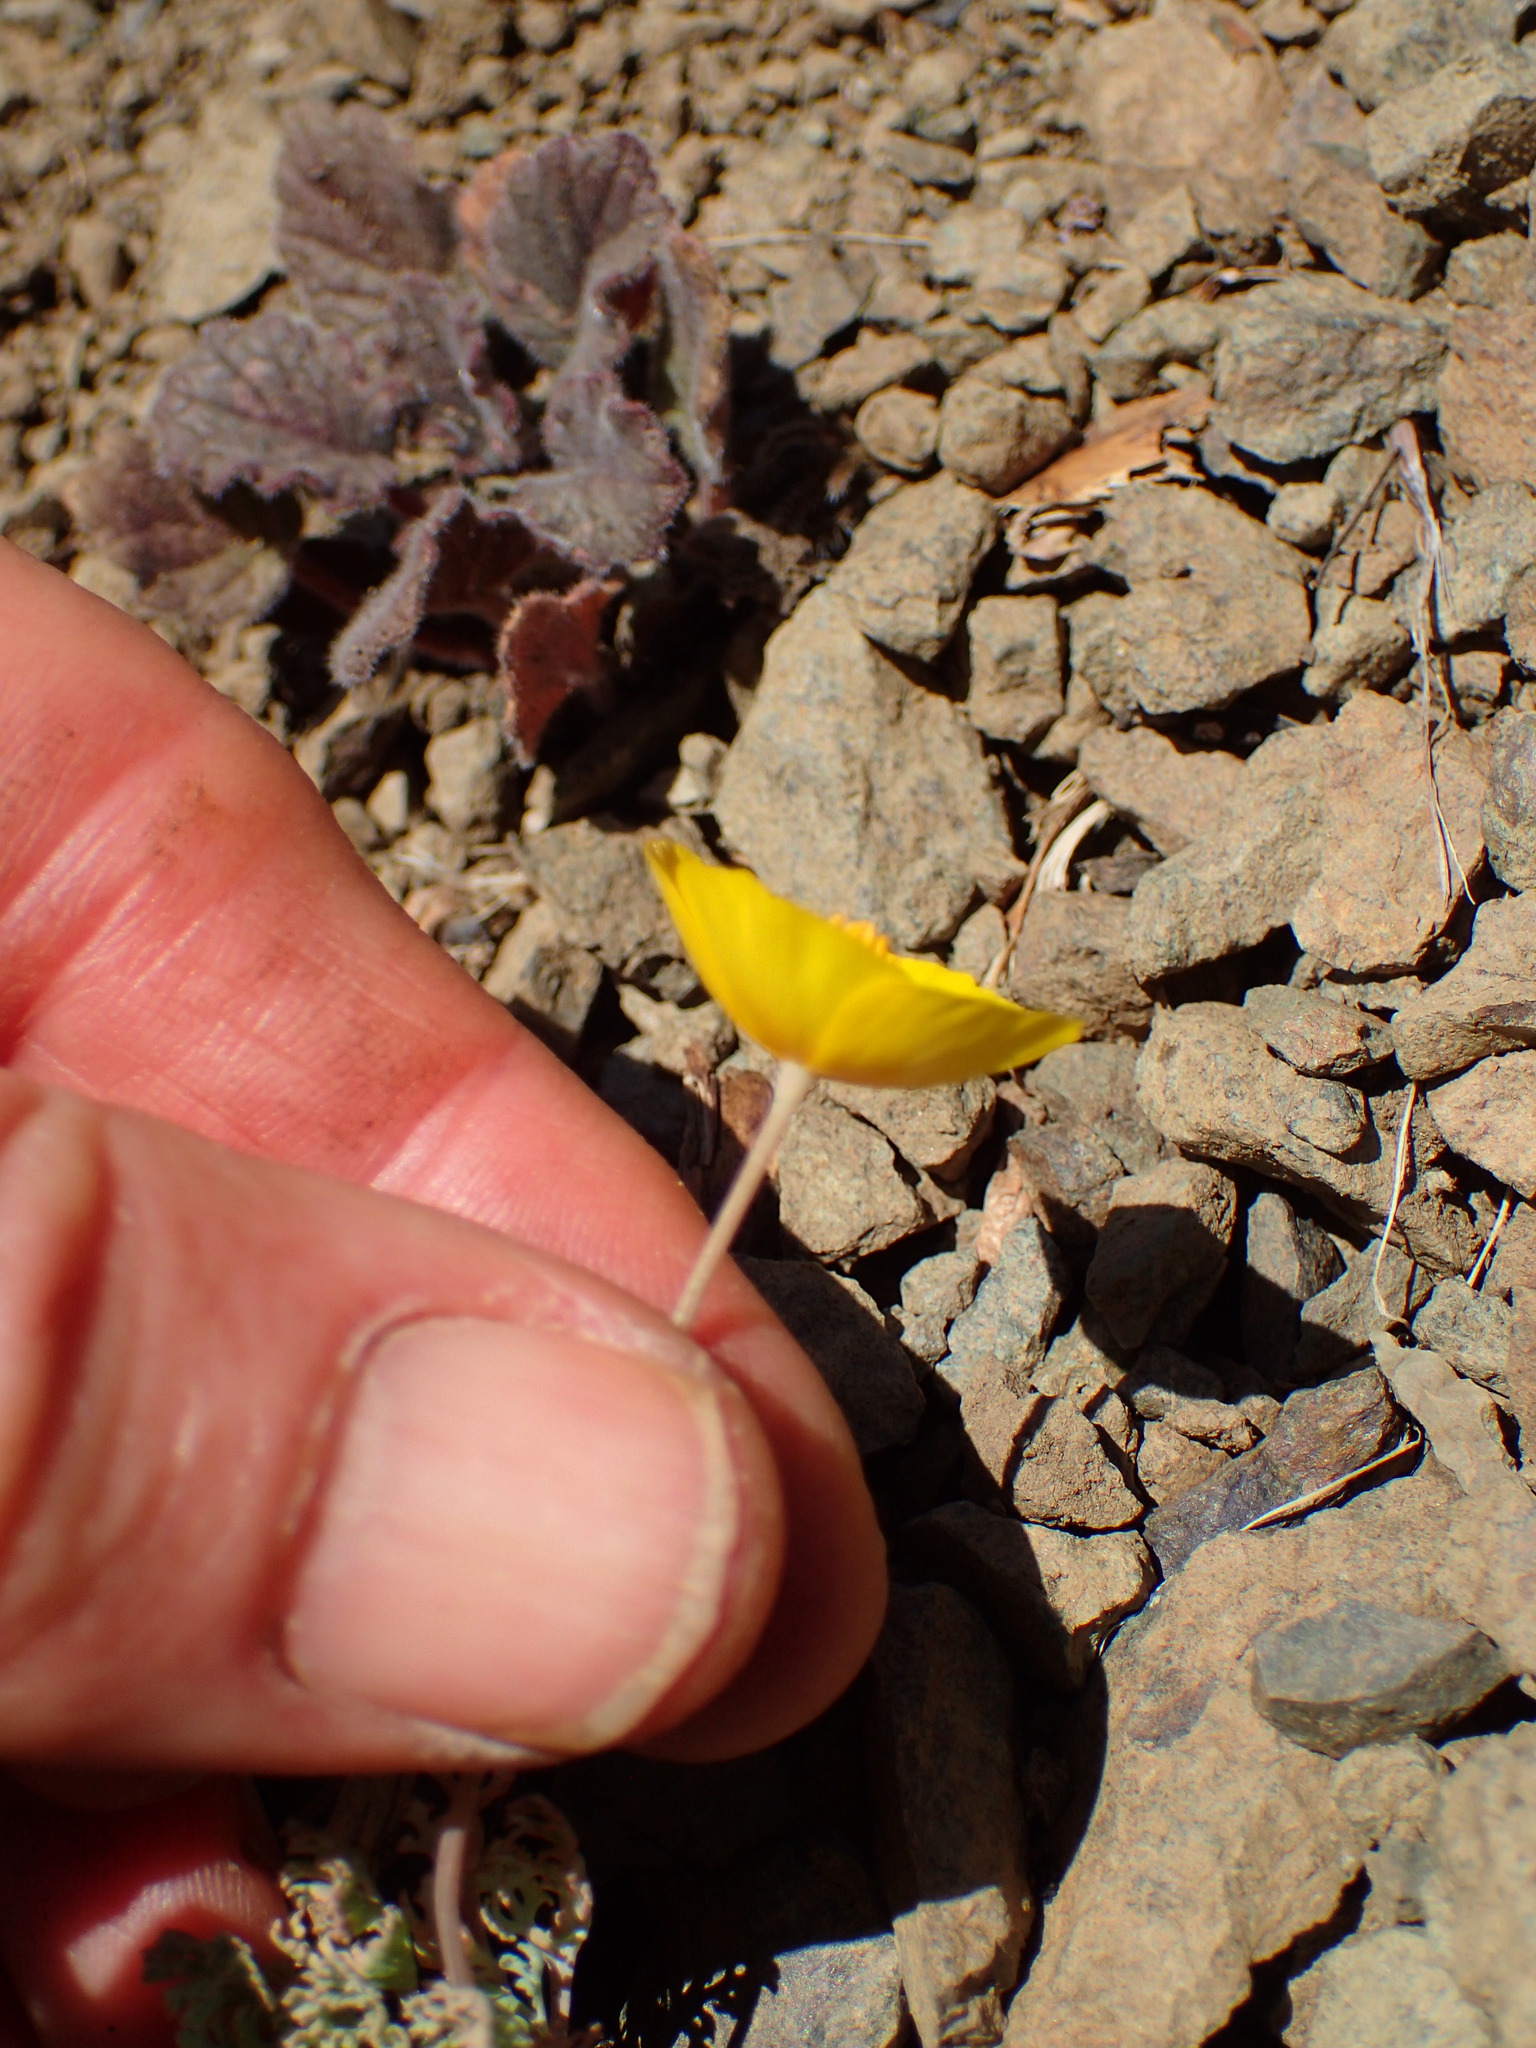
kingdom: Plantae
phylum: Tracheophyta
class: Magnoliopsida
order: Ranunculales
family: Papaveraceae
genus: Eschscholzia
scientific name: Eschscholzia caespitosa
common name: Tufted california-poppy
